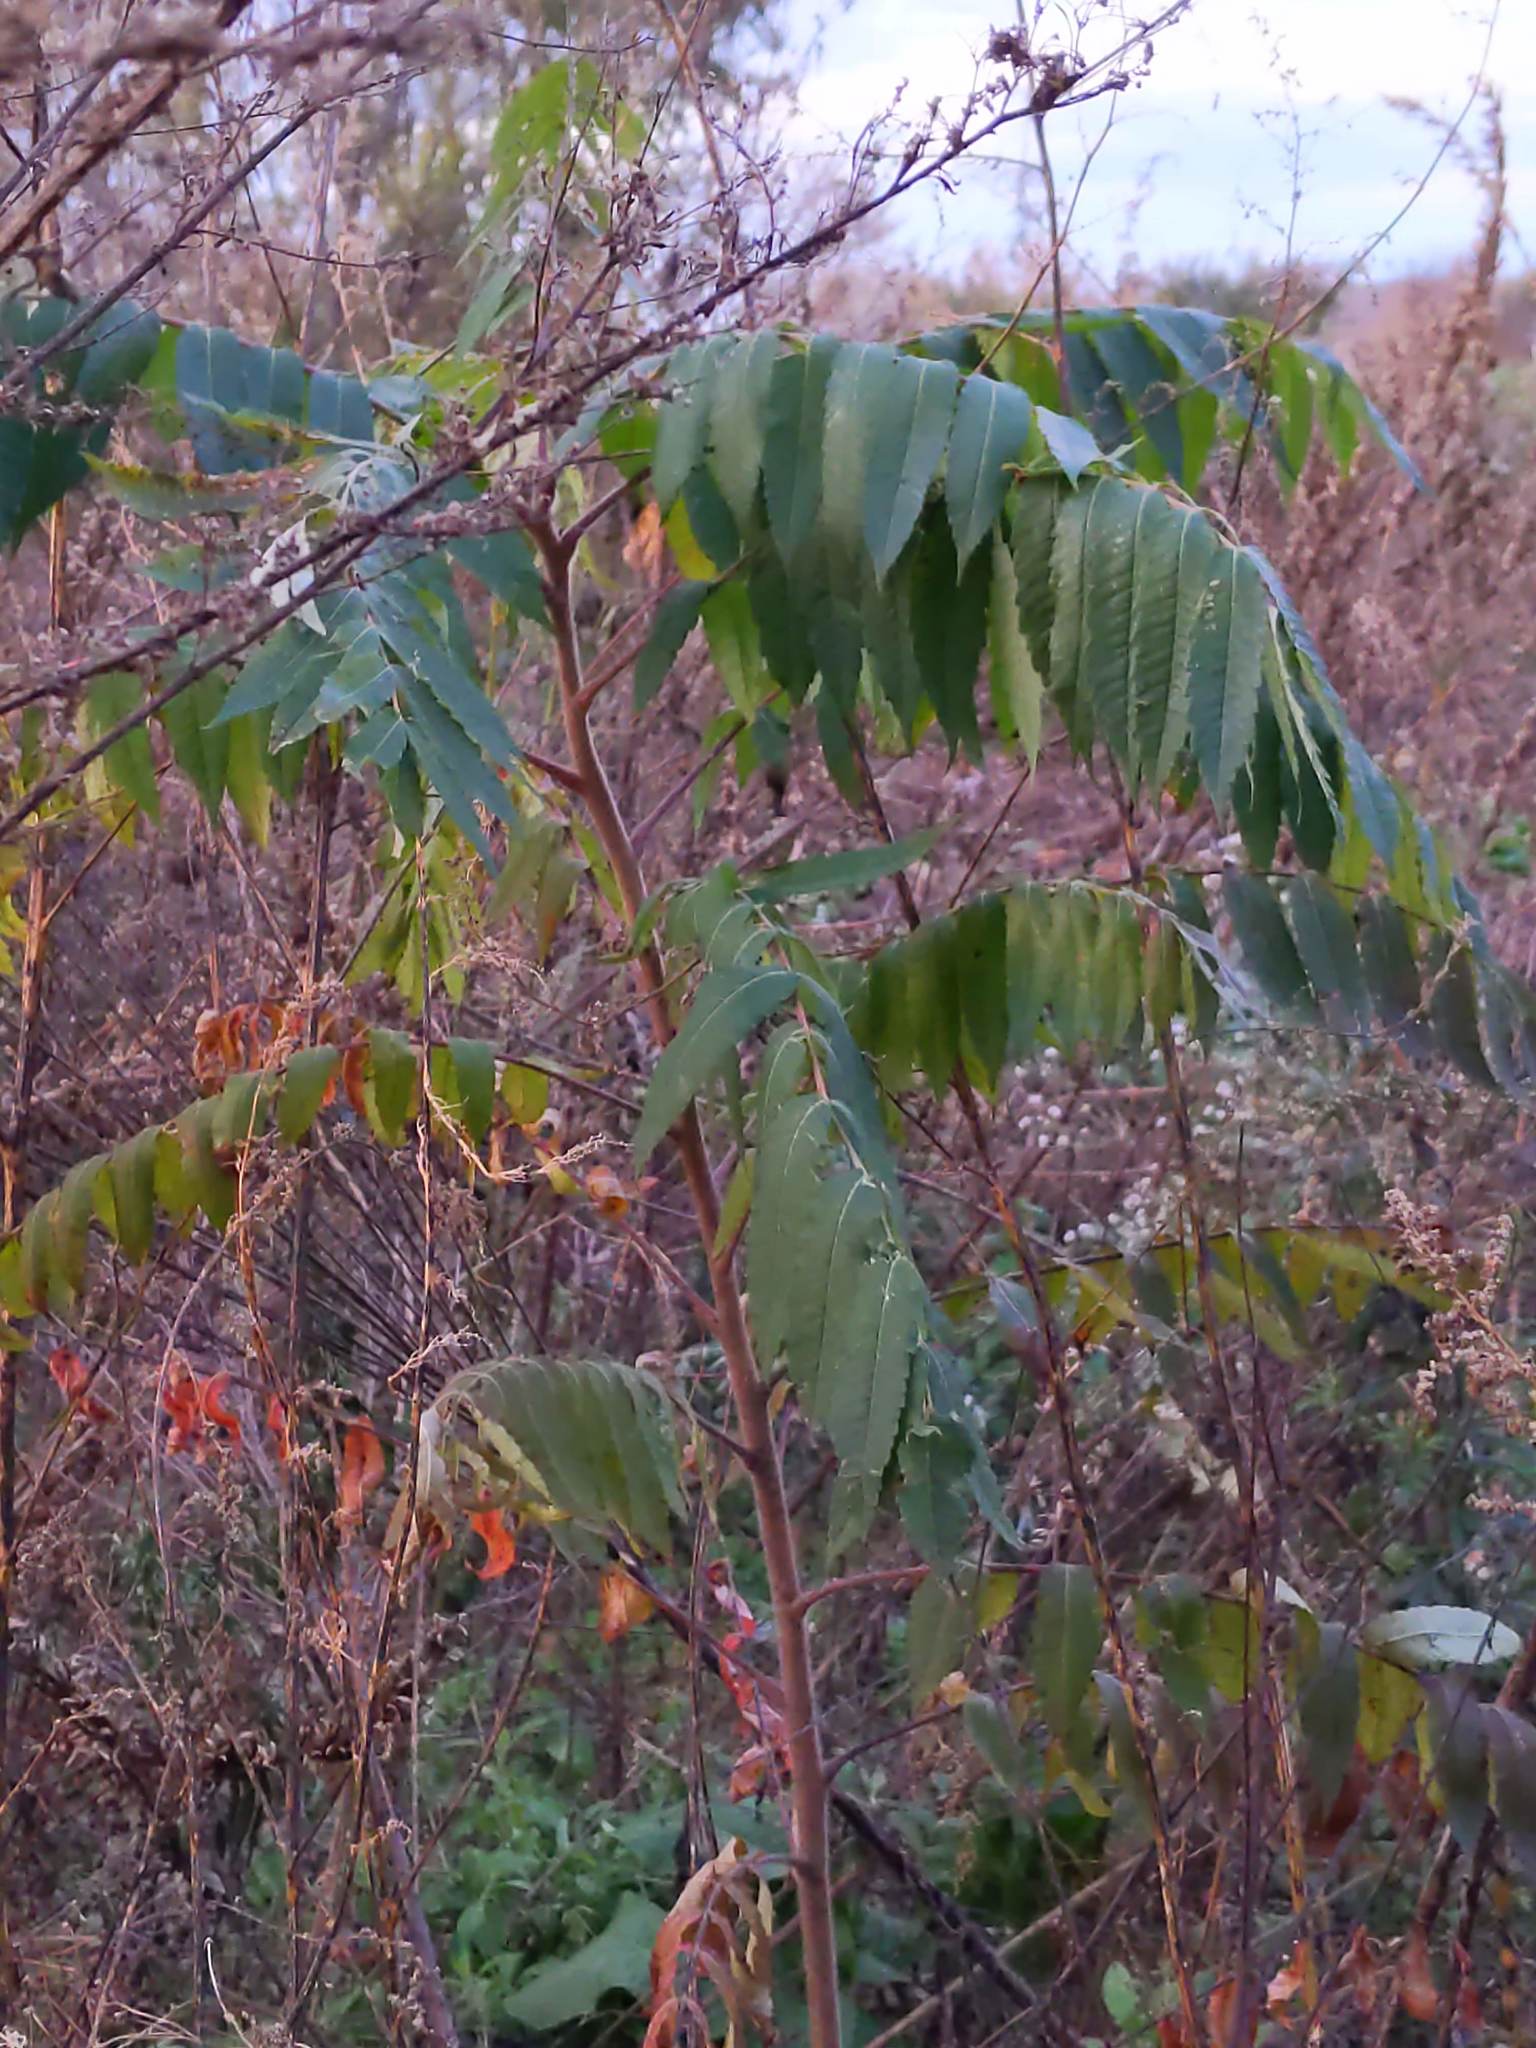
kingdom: Plantae
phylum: Tracheophyta
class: Magnoliopsida
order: Sapindales
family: Anacardiaceae
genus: Rhus
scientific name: Rhus typhina
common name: Staghorn sumac
